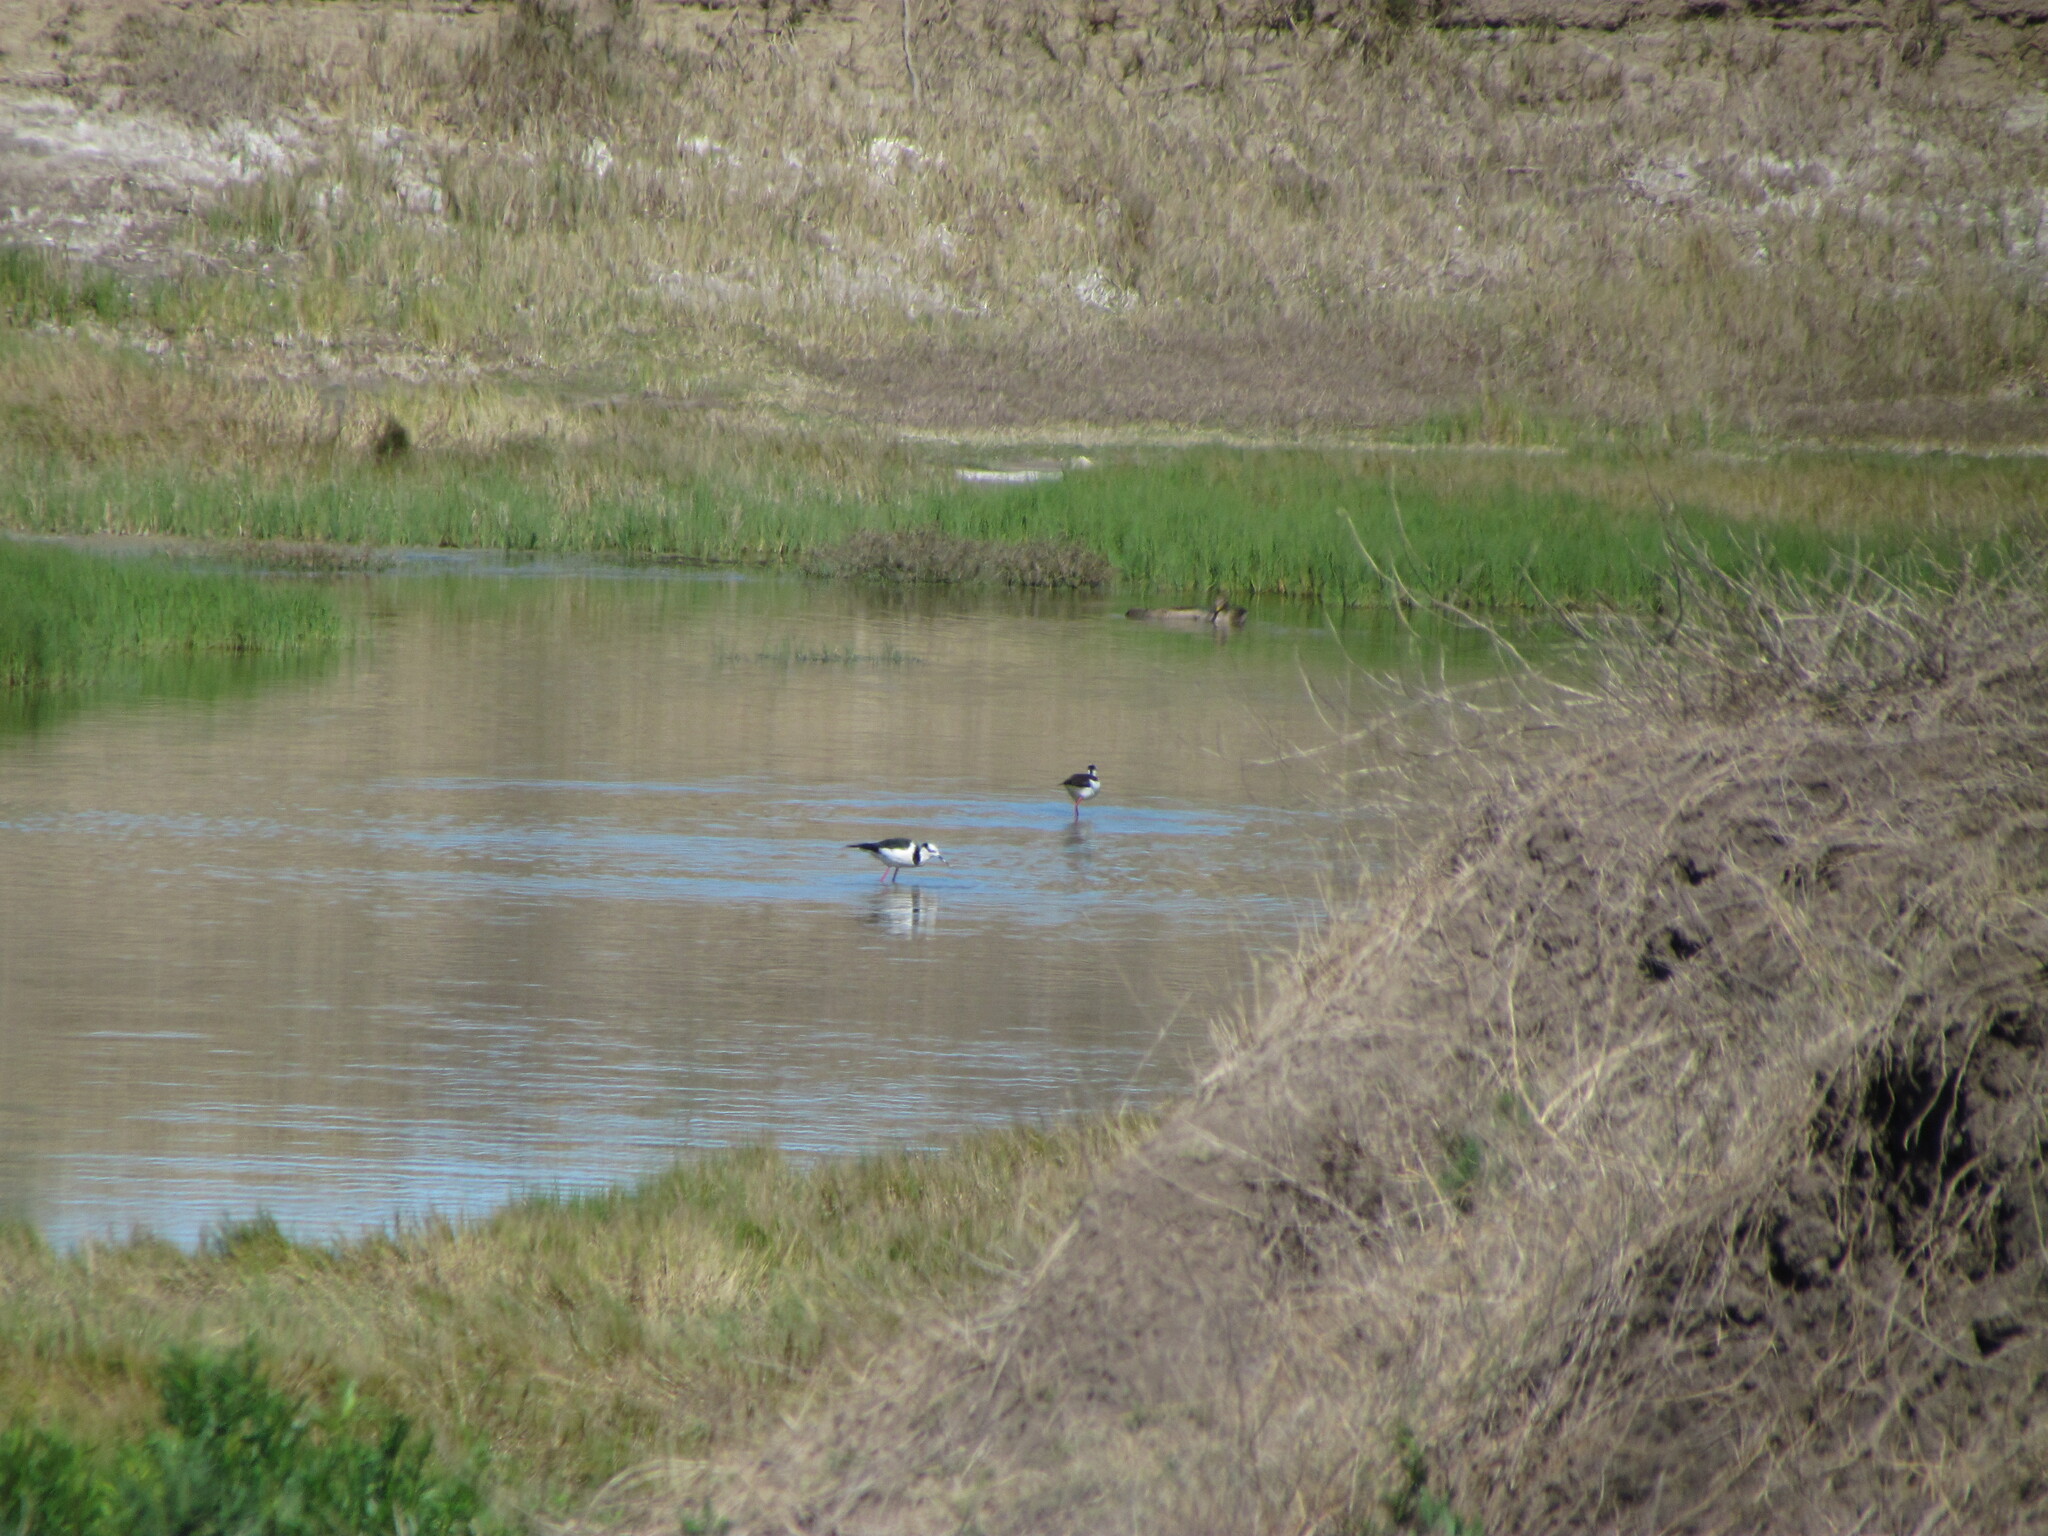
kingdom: Animalia
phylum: Chordata
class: Aves
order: Charadriiformes
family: Recurvirostridae
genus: Himantopus
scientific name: Himantopus mexicanus
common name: Black-necked stilt
